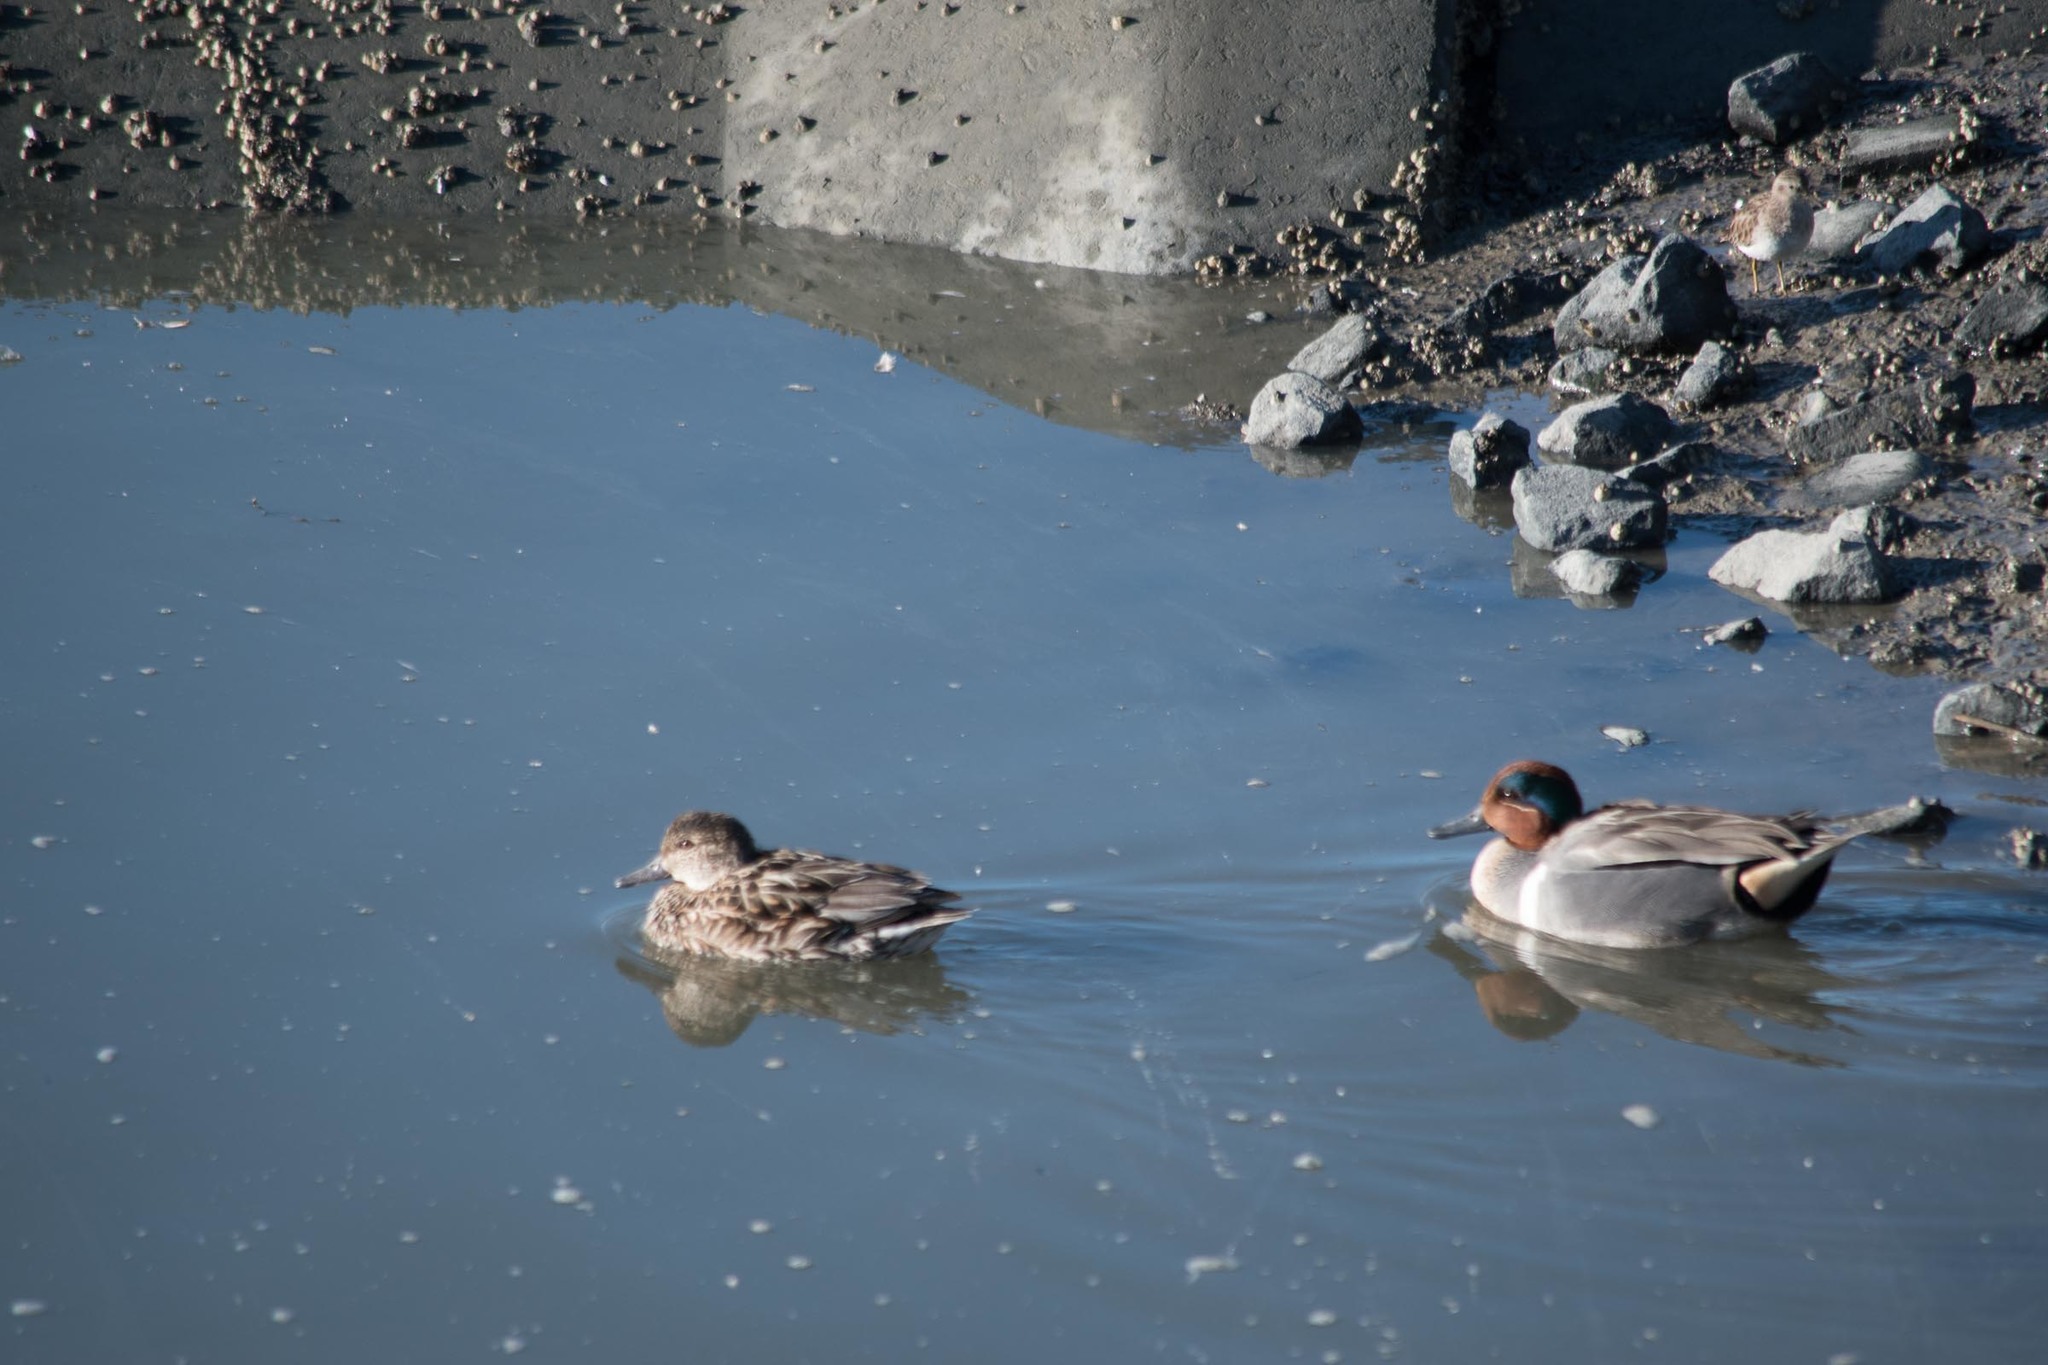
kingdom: Animalia
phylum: Chordata
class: Aves
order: Anseriformes
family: Anatidae
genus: Anas
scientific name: Anas crecca
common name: Eurasian teal
